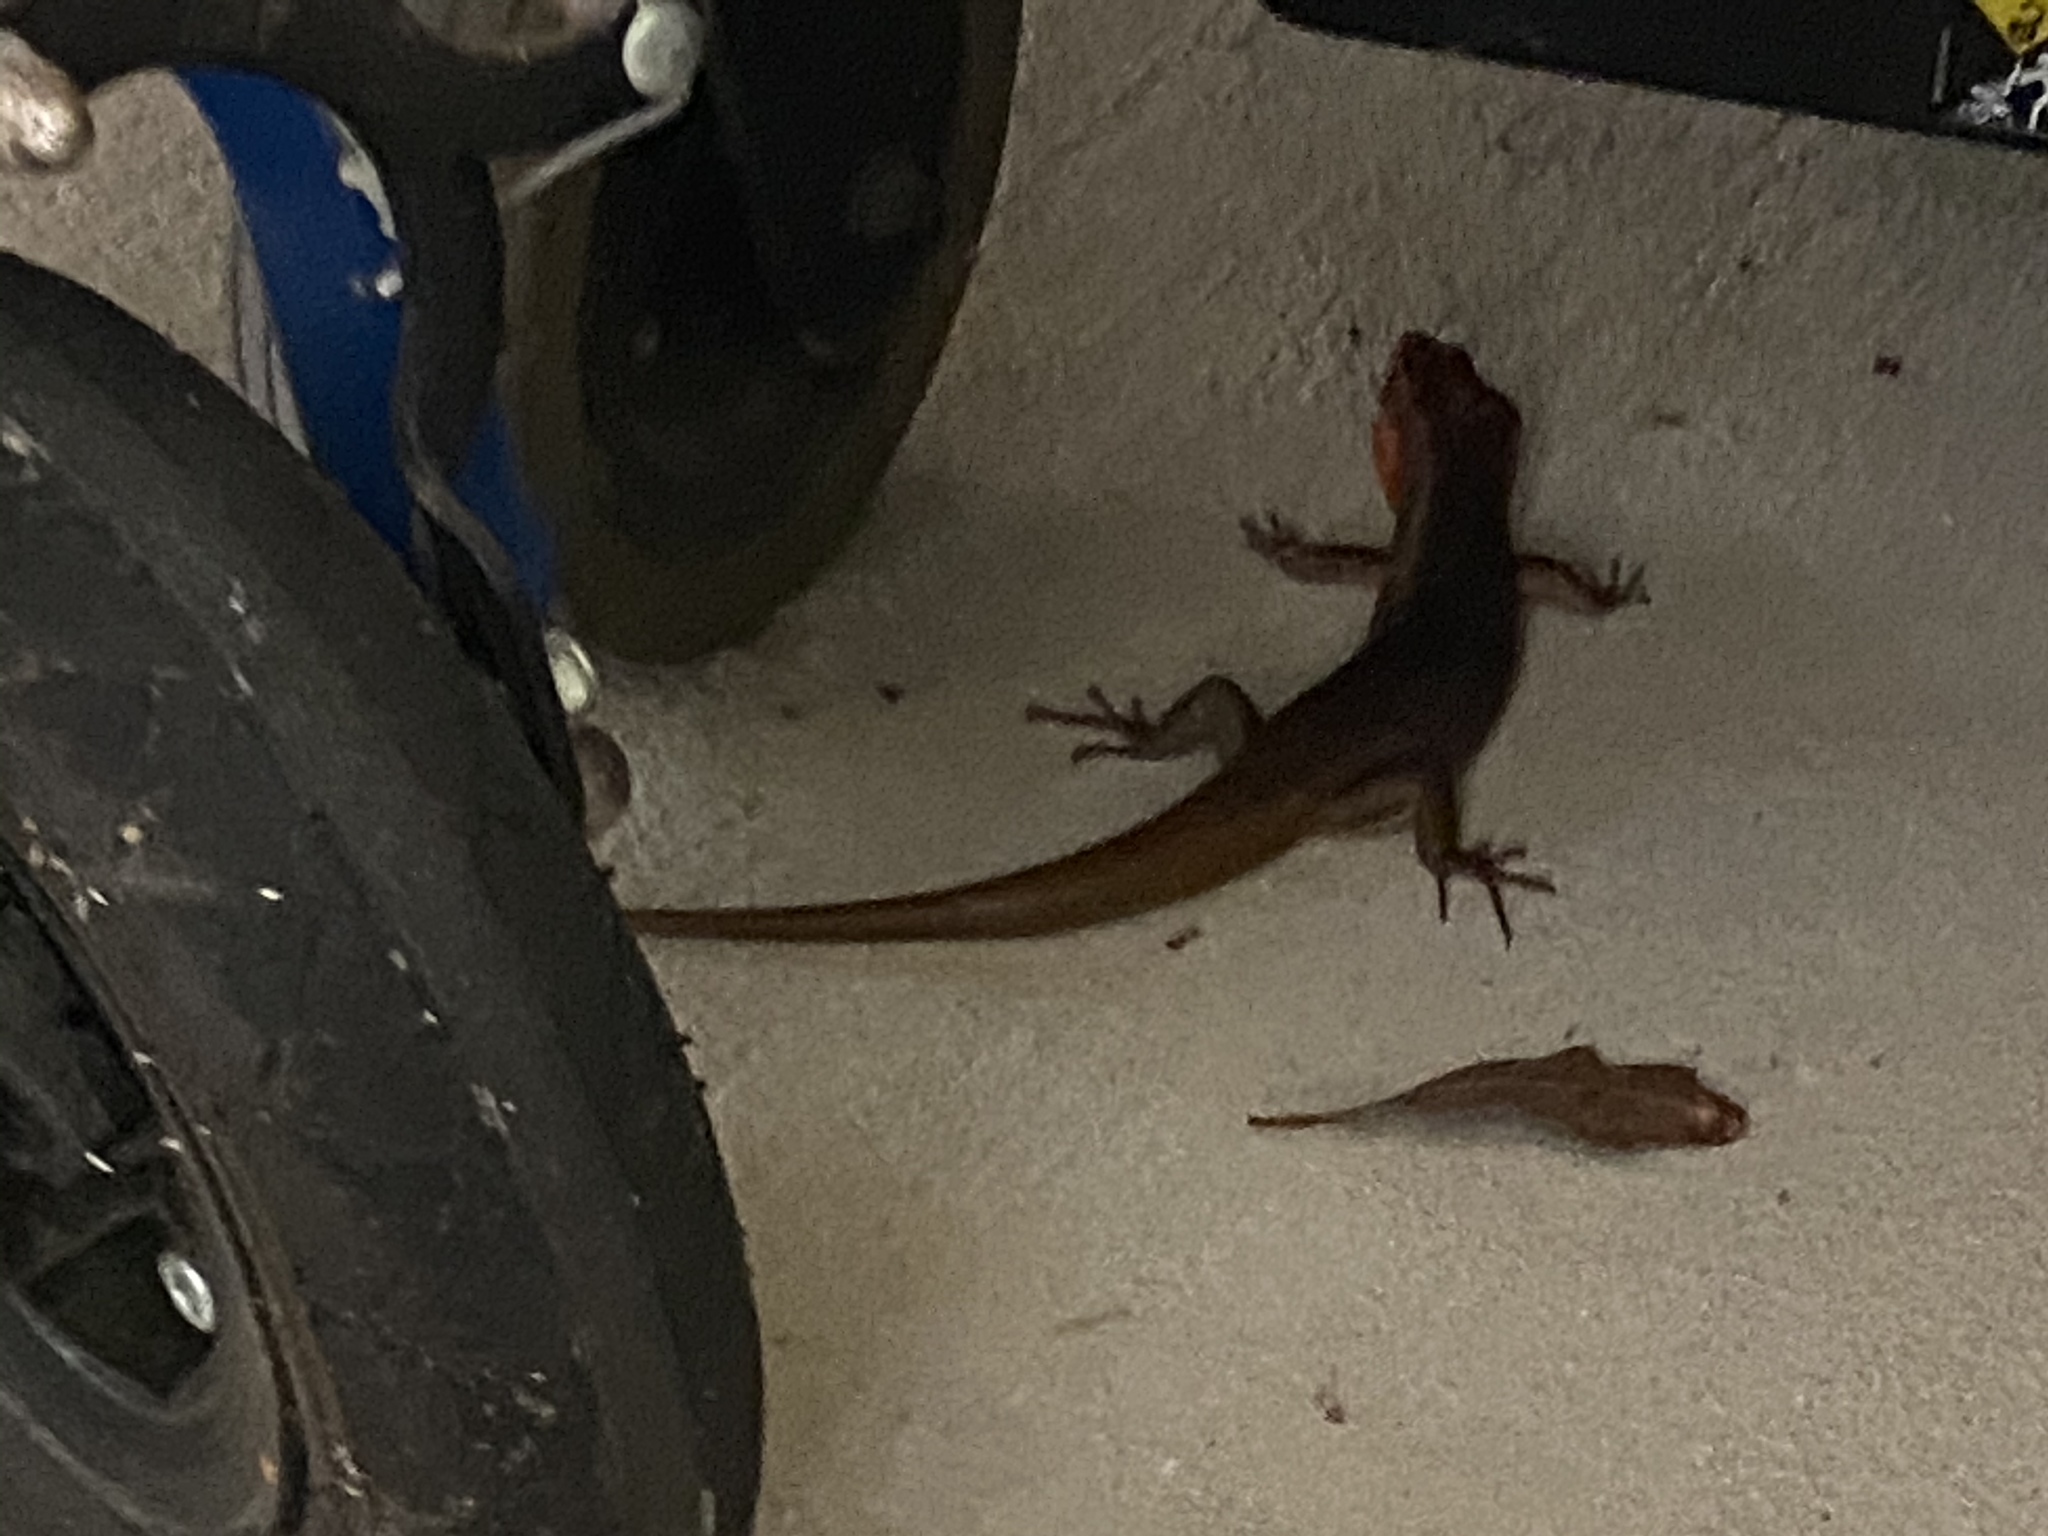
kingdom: Animalia
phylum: Chordata
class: Squamata
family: Scincidae
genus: Plestiodon
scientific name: Plestiodon laticeps
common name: Broadhead skink
